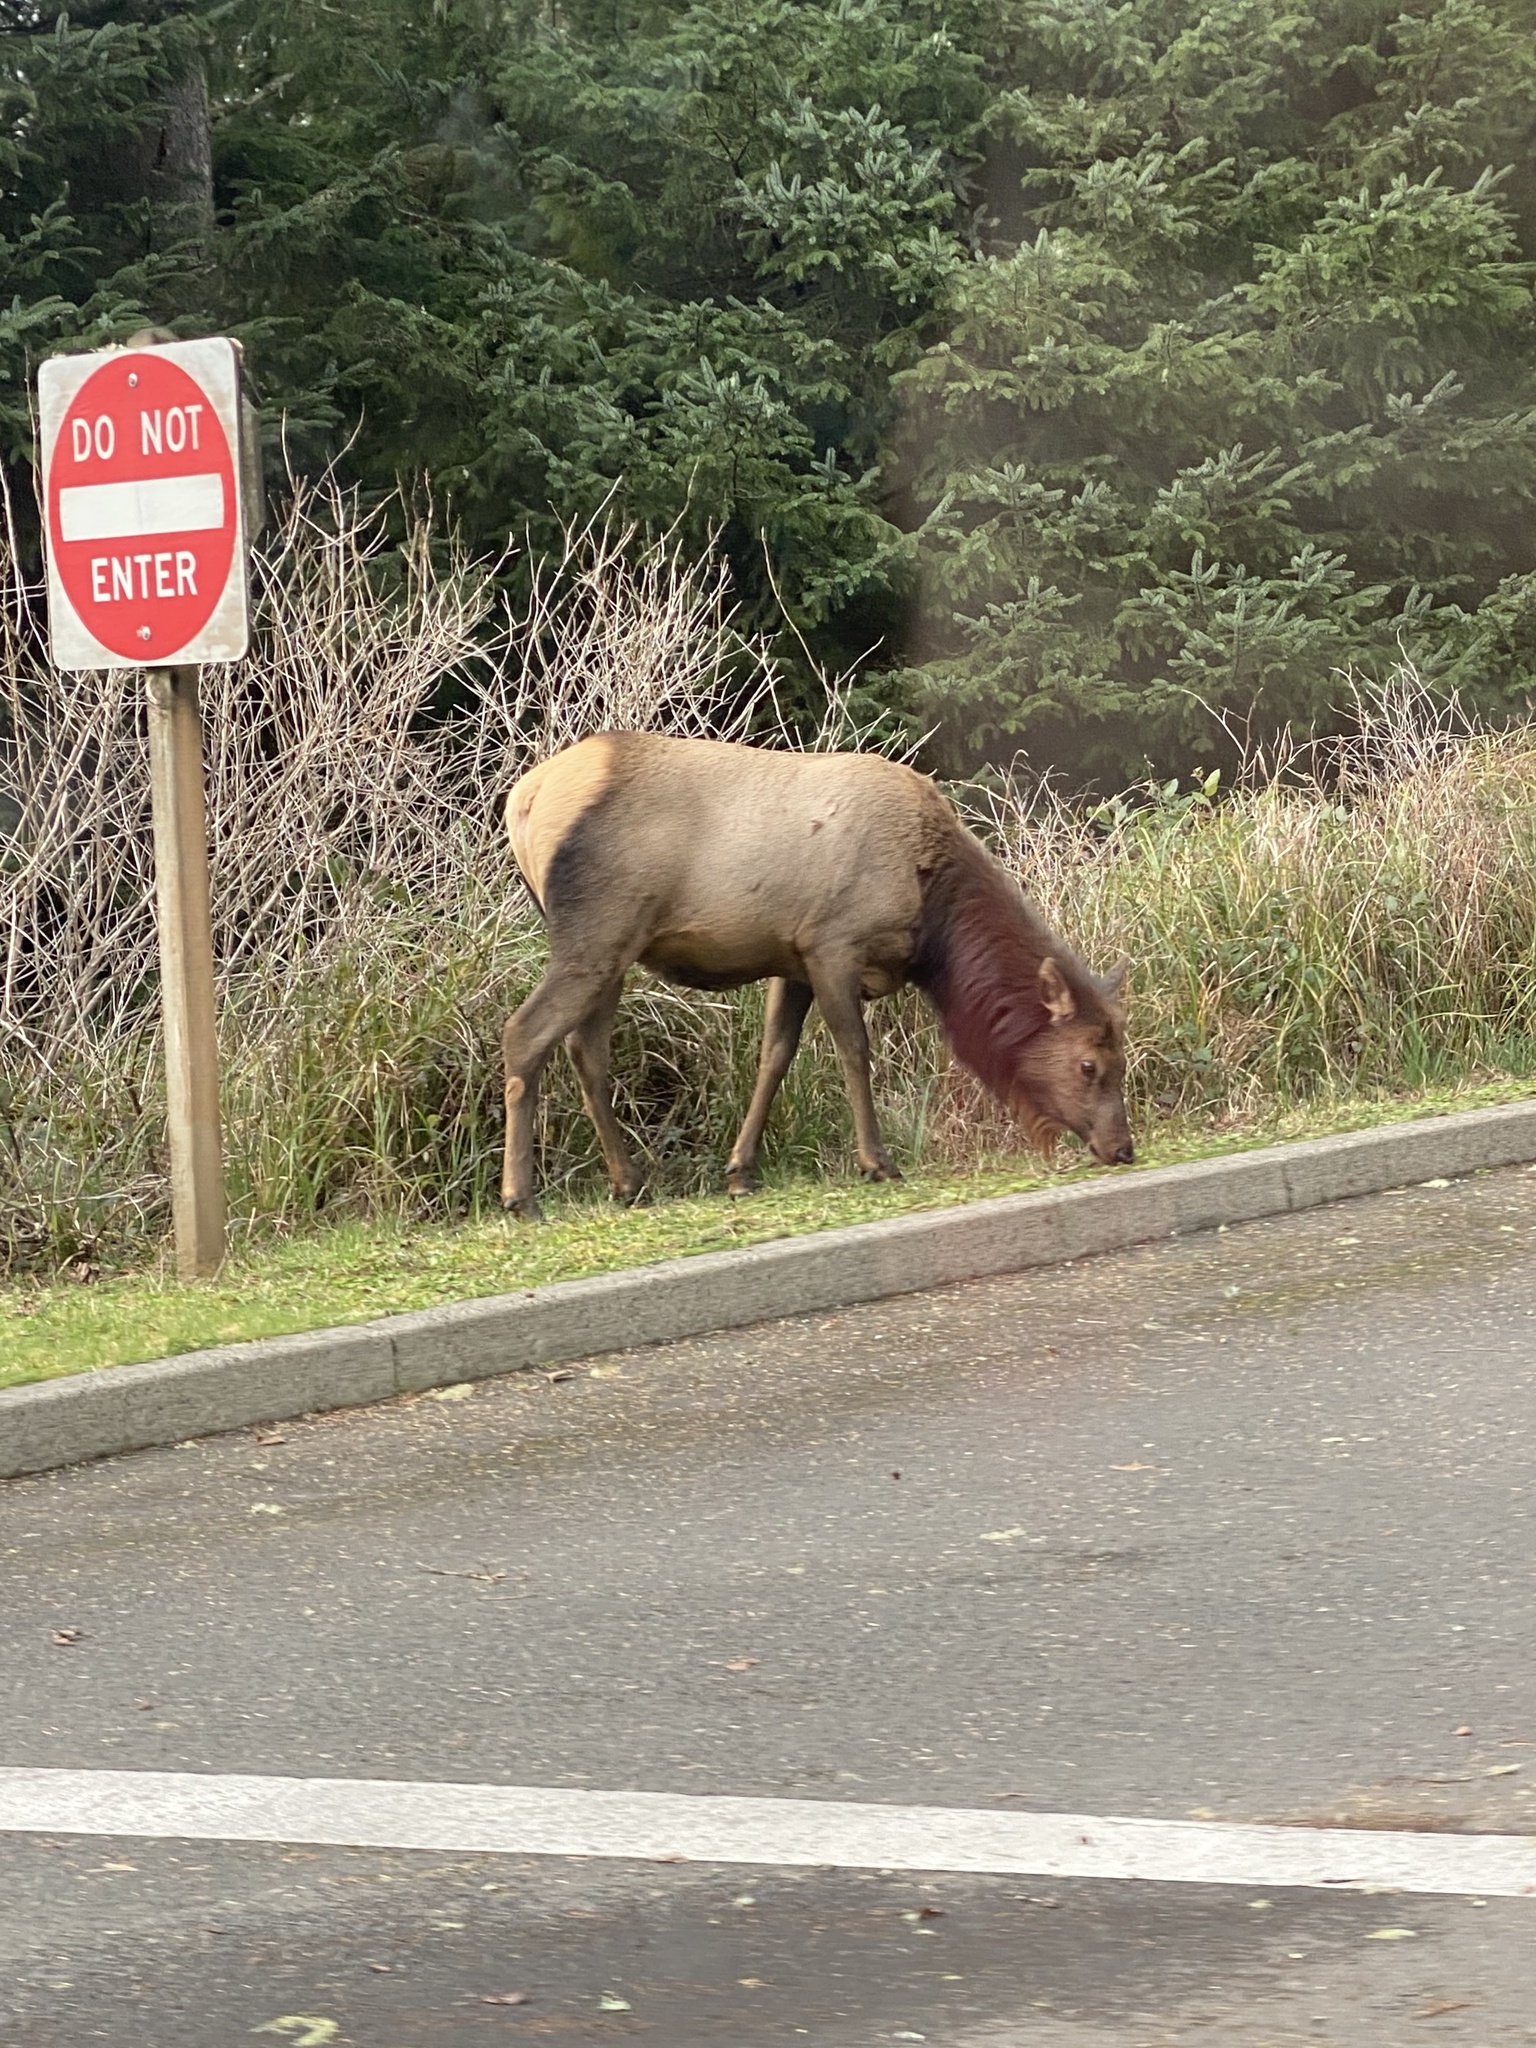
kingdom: Animalia
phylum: Chordata
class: Mammalia
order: Artiodactyla
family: Cervidae
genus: Cervus
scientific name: Cervus elaphus
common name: Red deer
